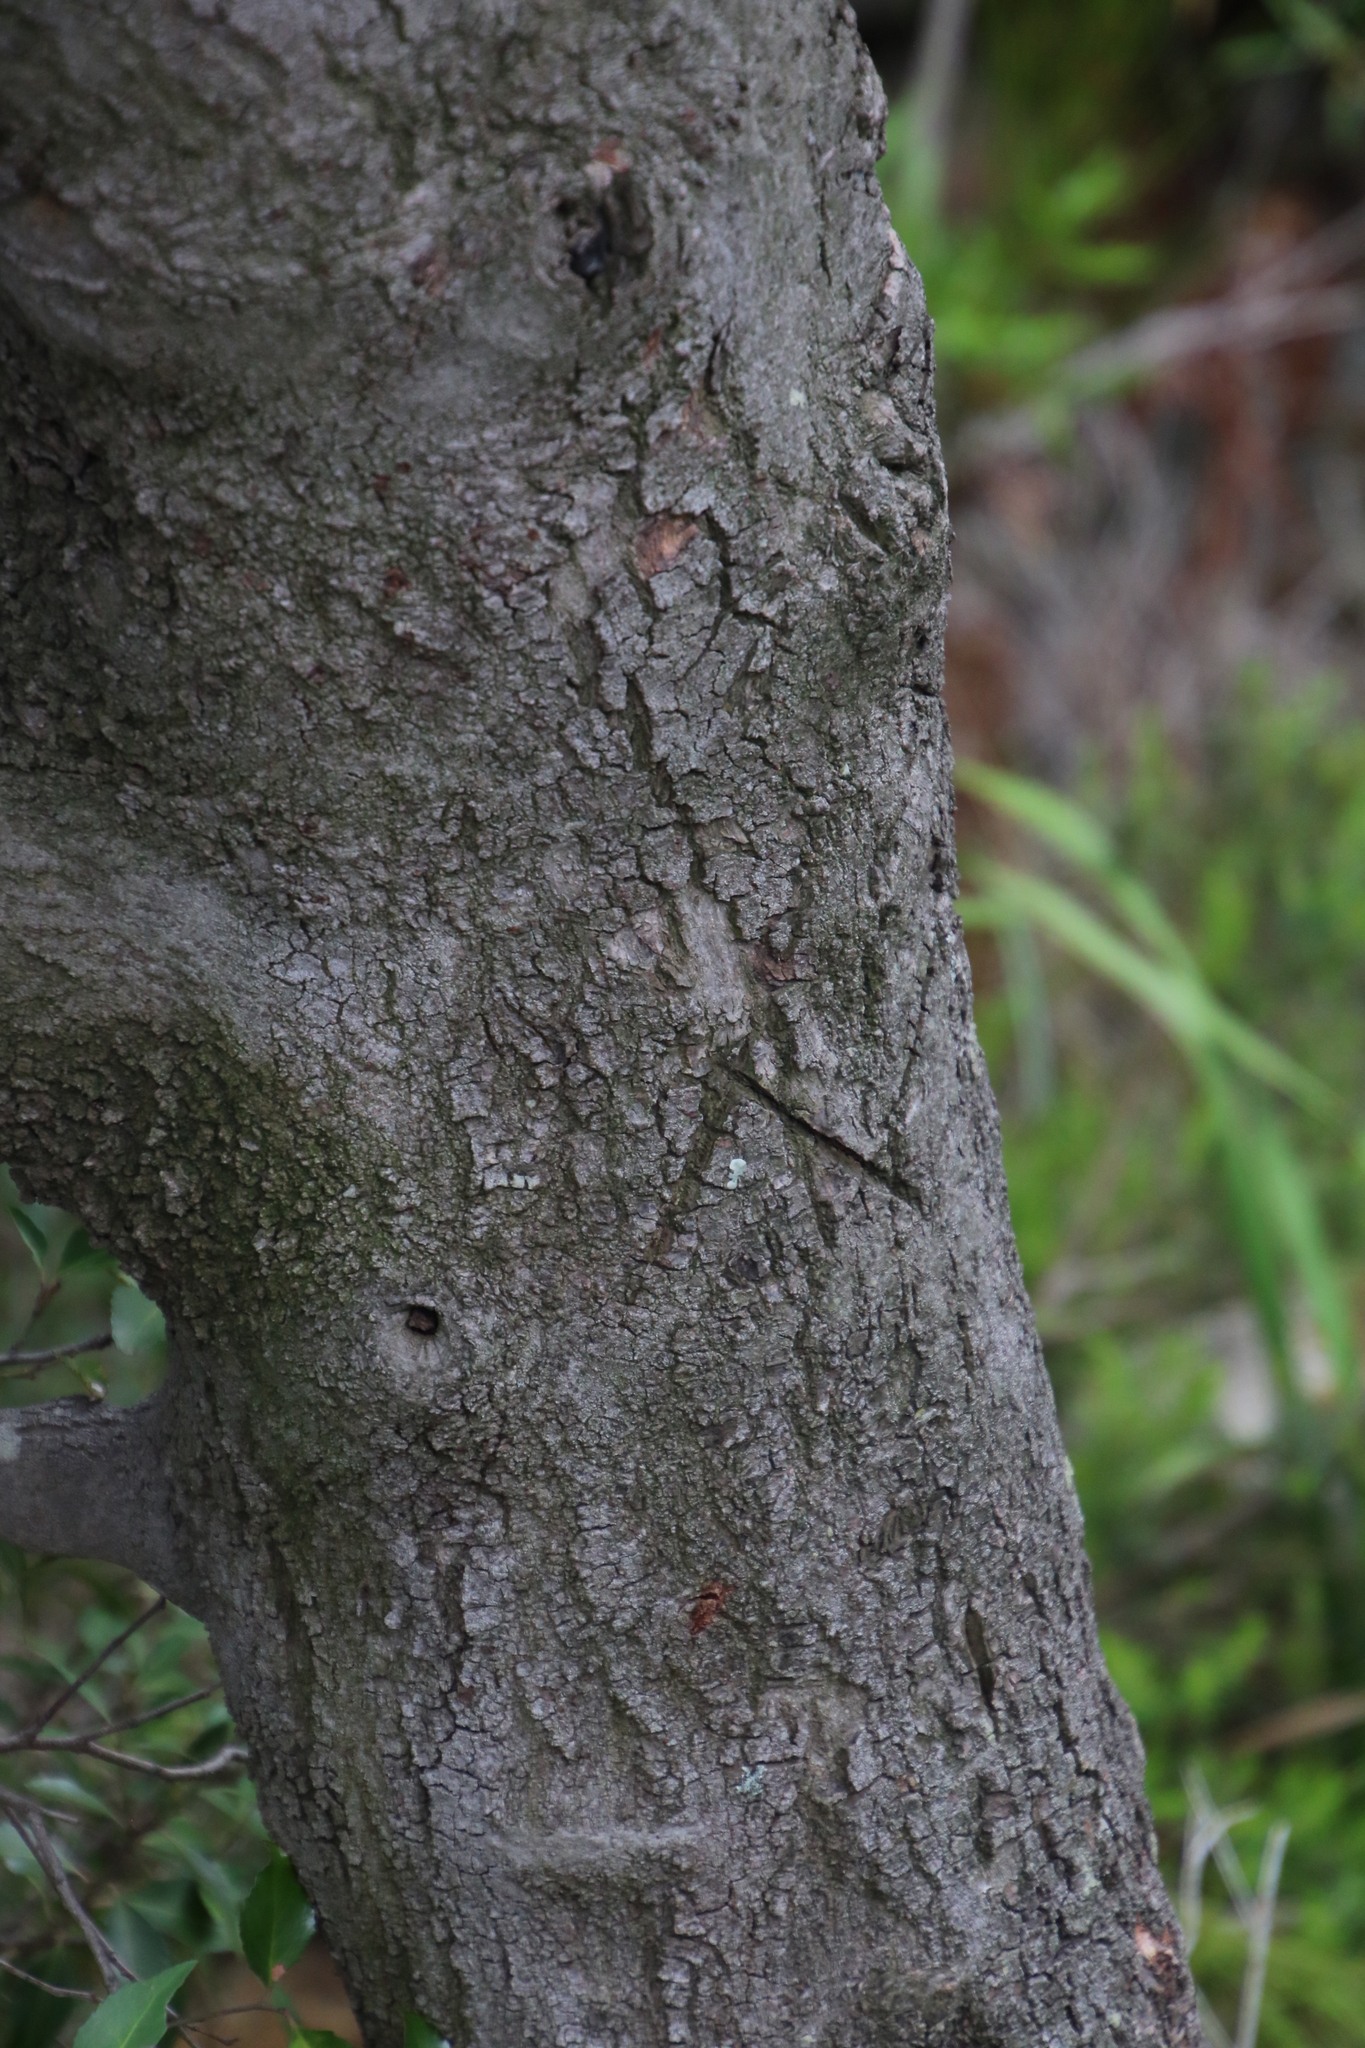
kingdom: Plantae
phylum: Tracheophyta
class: Magnoliopsida
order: Celastrales
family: Celastraceae
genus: Gymnosporia
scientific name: Gymnosporia acuminata
